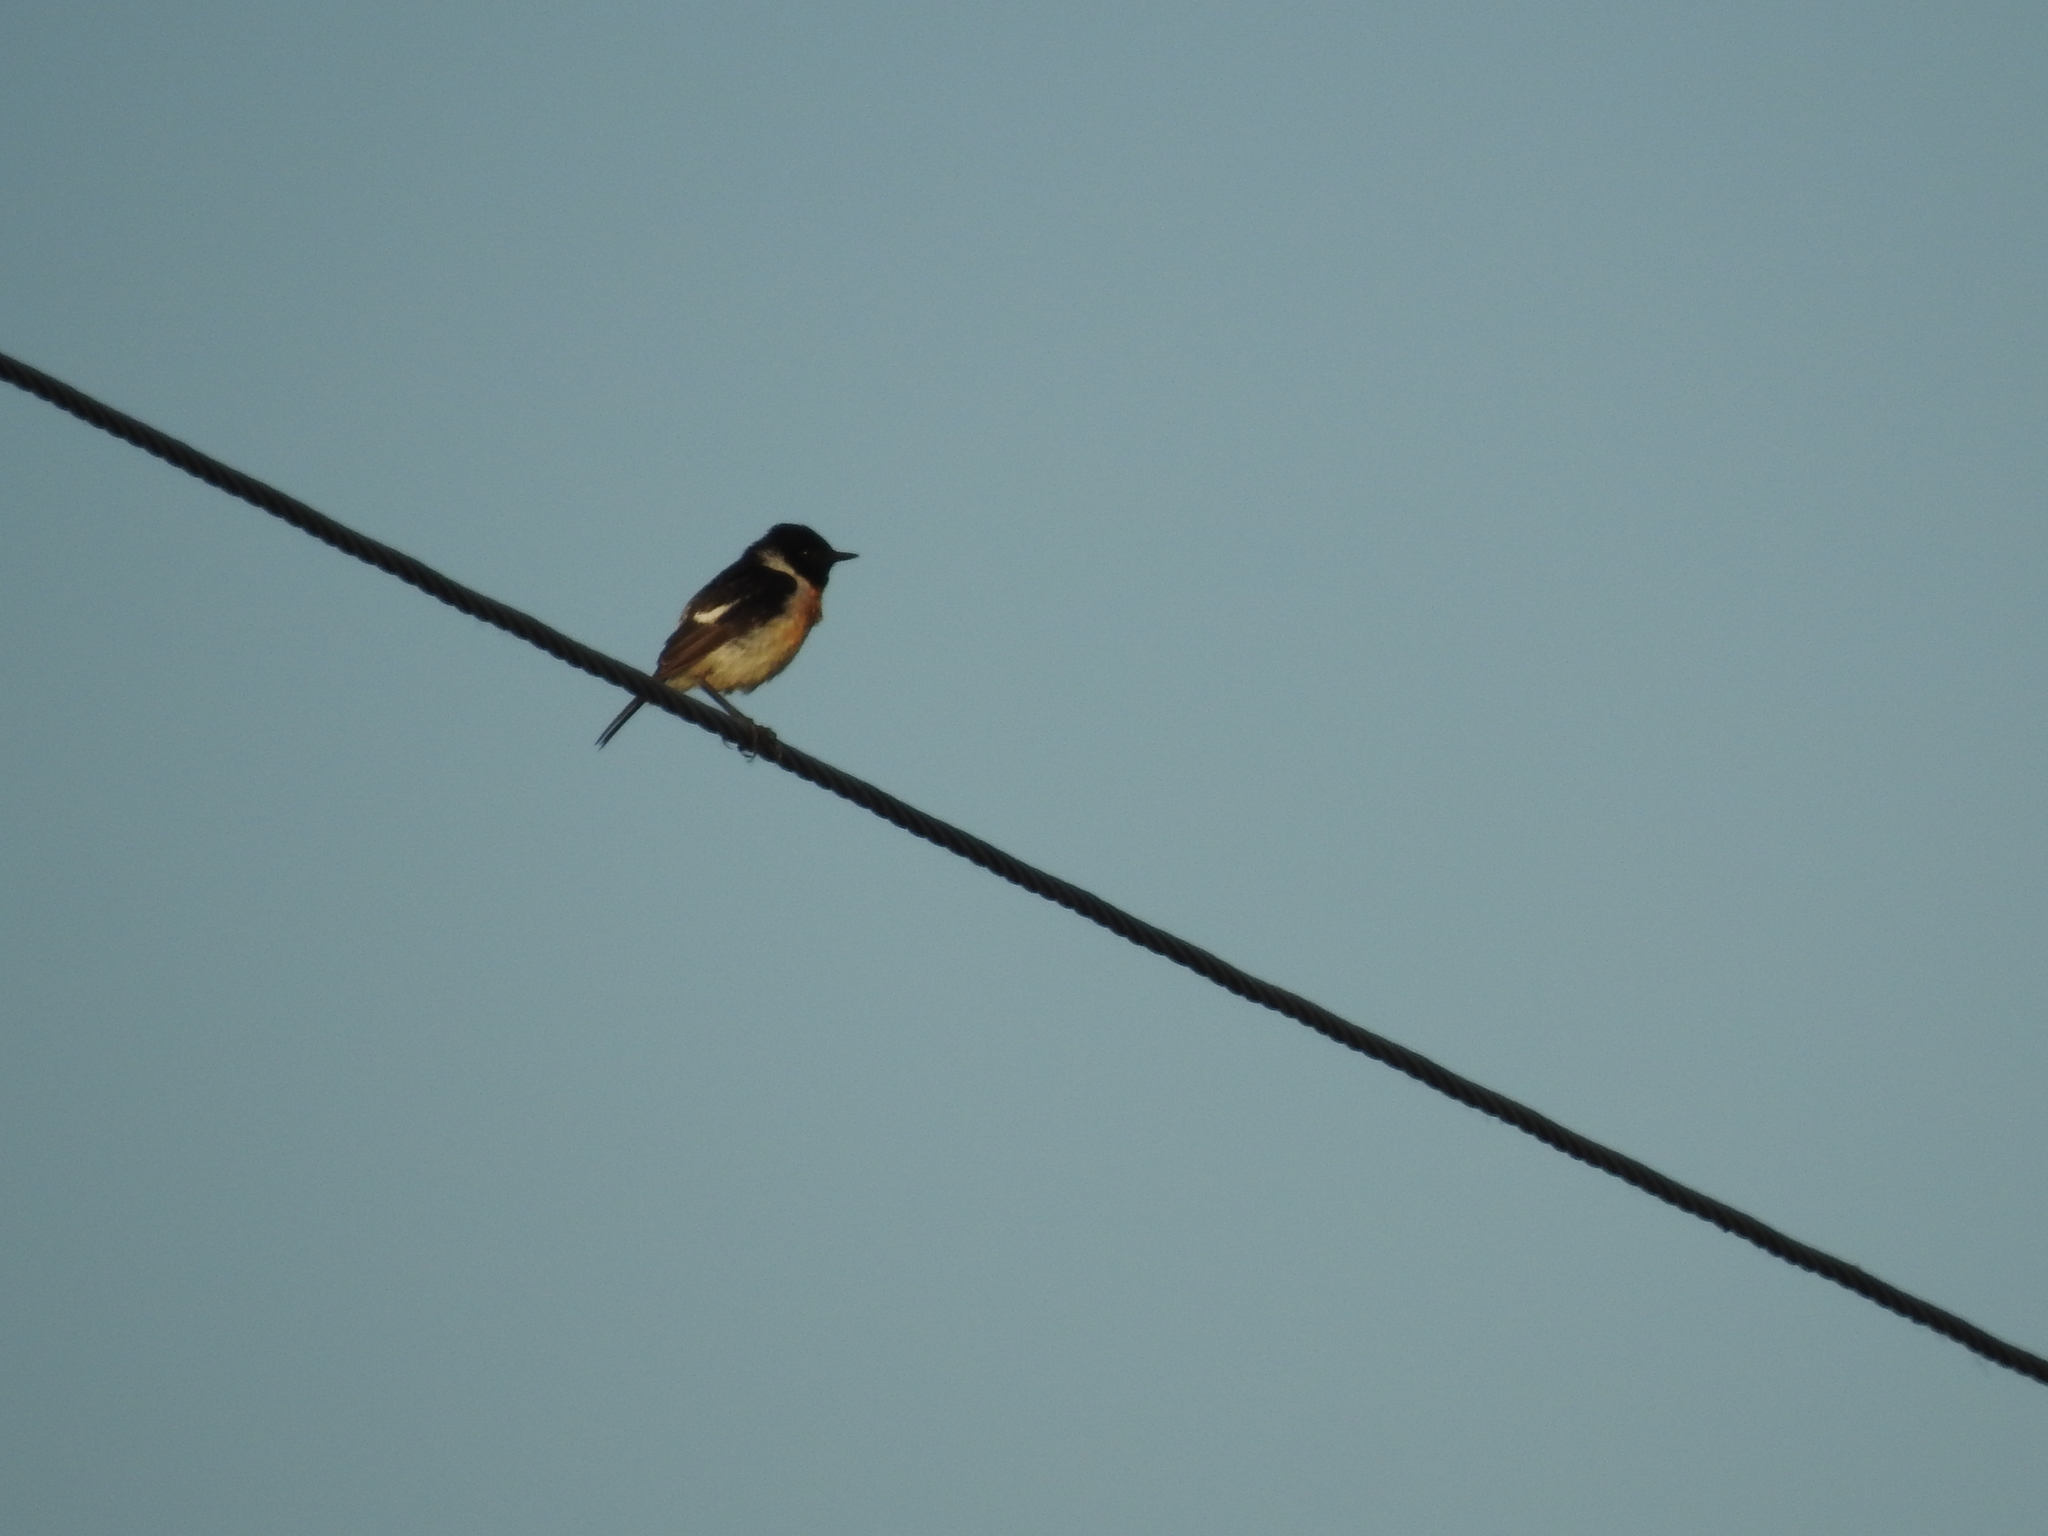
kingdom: Animalia
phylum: Chordata
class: Aves
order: Passeriformes
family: Muscicapidae
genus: Saxicola
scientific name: Saxicola maurus
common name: Siberian stonechat
